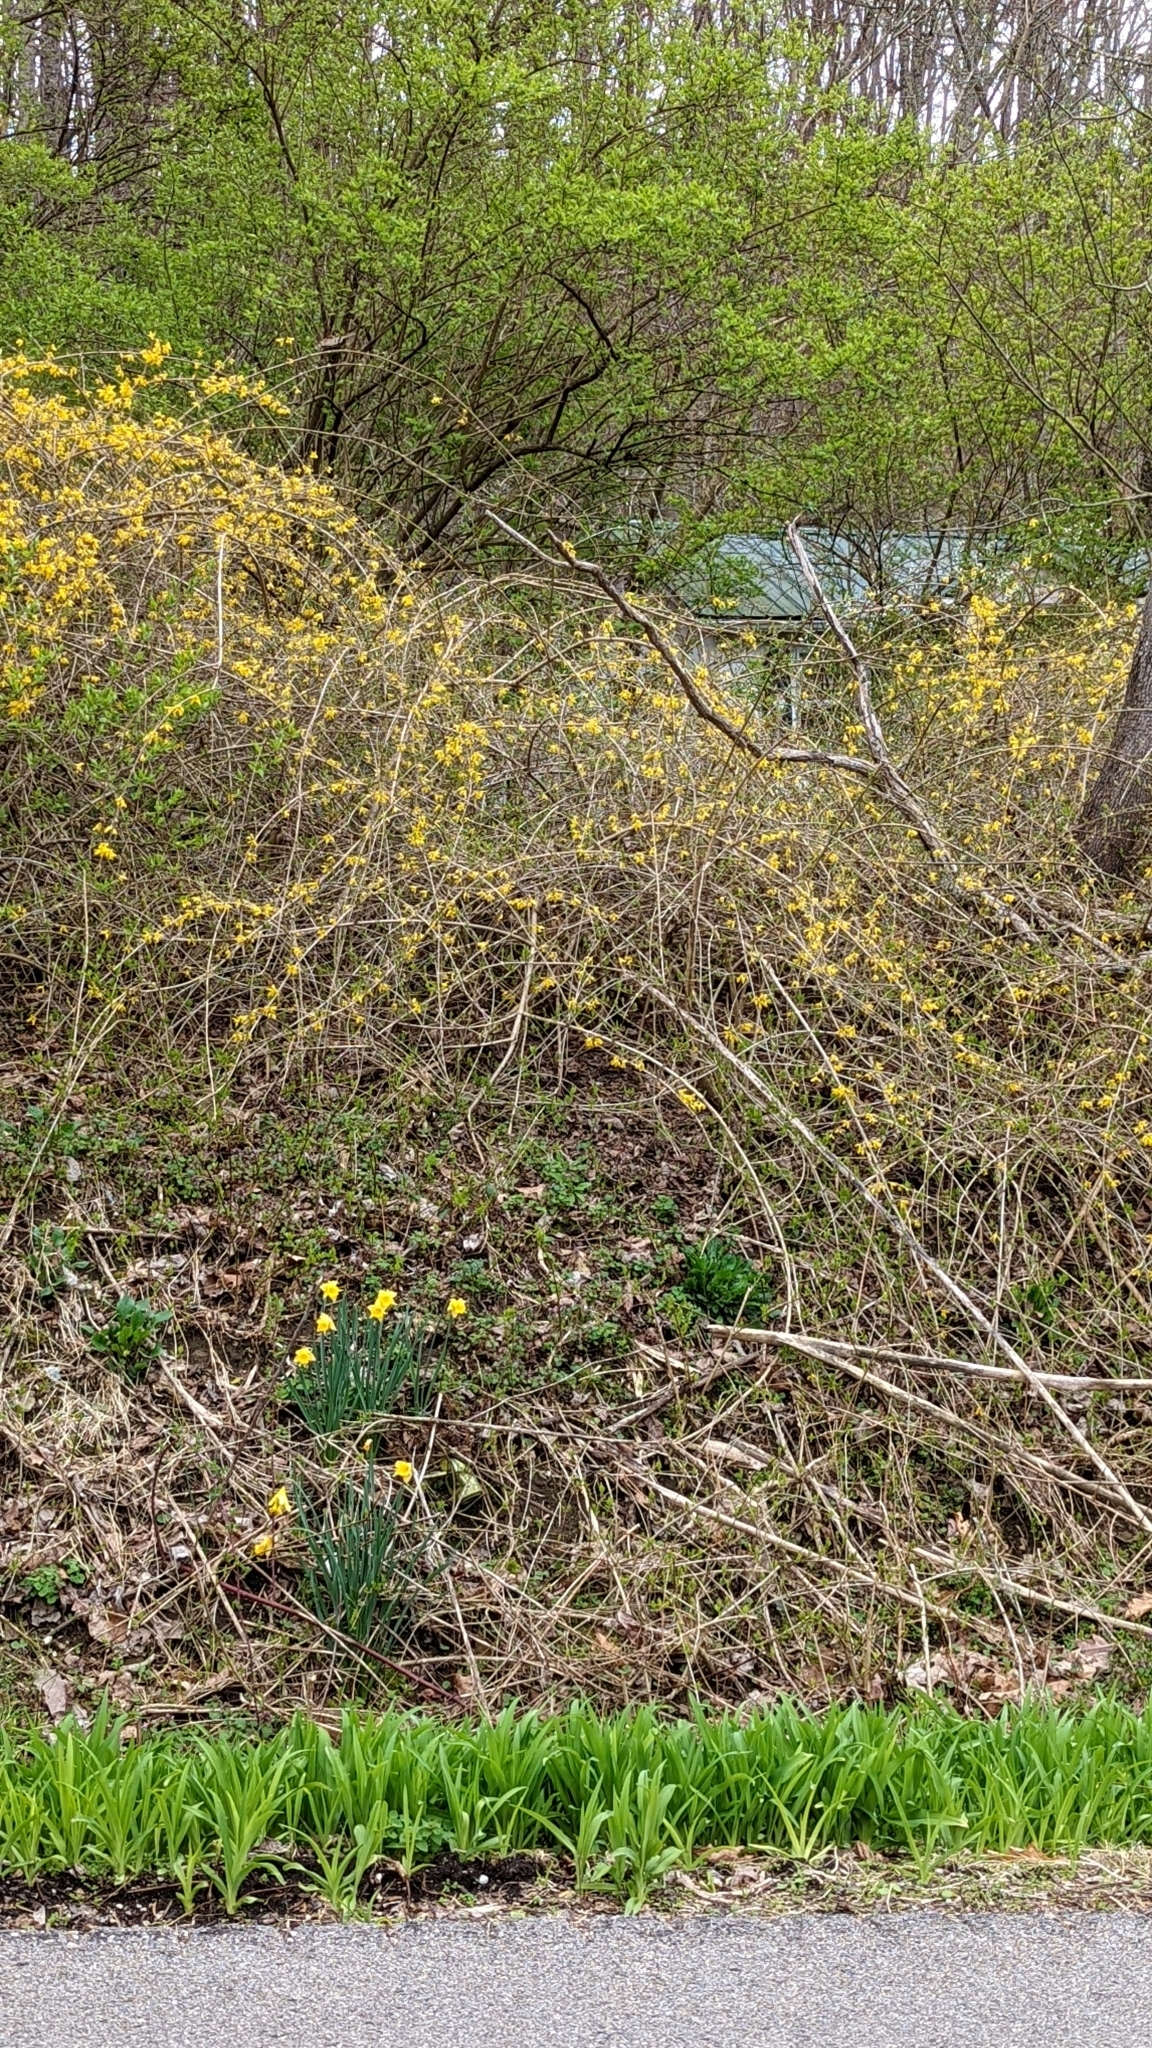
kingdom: Plantae
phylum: Tracheophyta
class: Magnoliopsida
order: Lamiales
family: Oleaceae
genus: Forsythia
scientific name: Forsythia intermedia
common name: Forsythia
